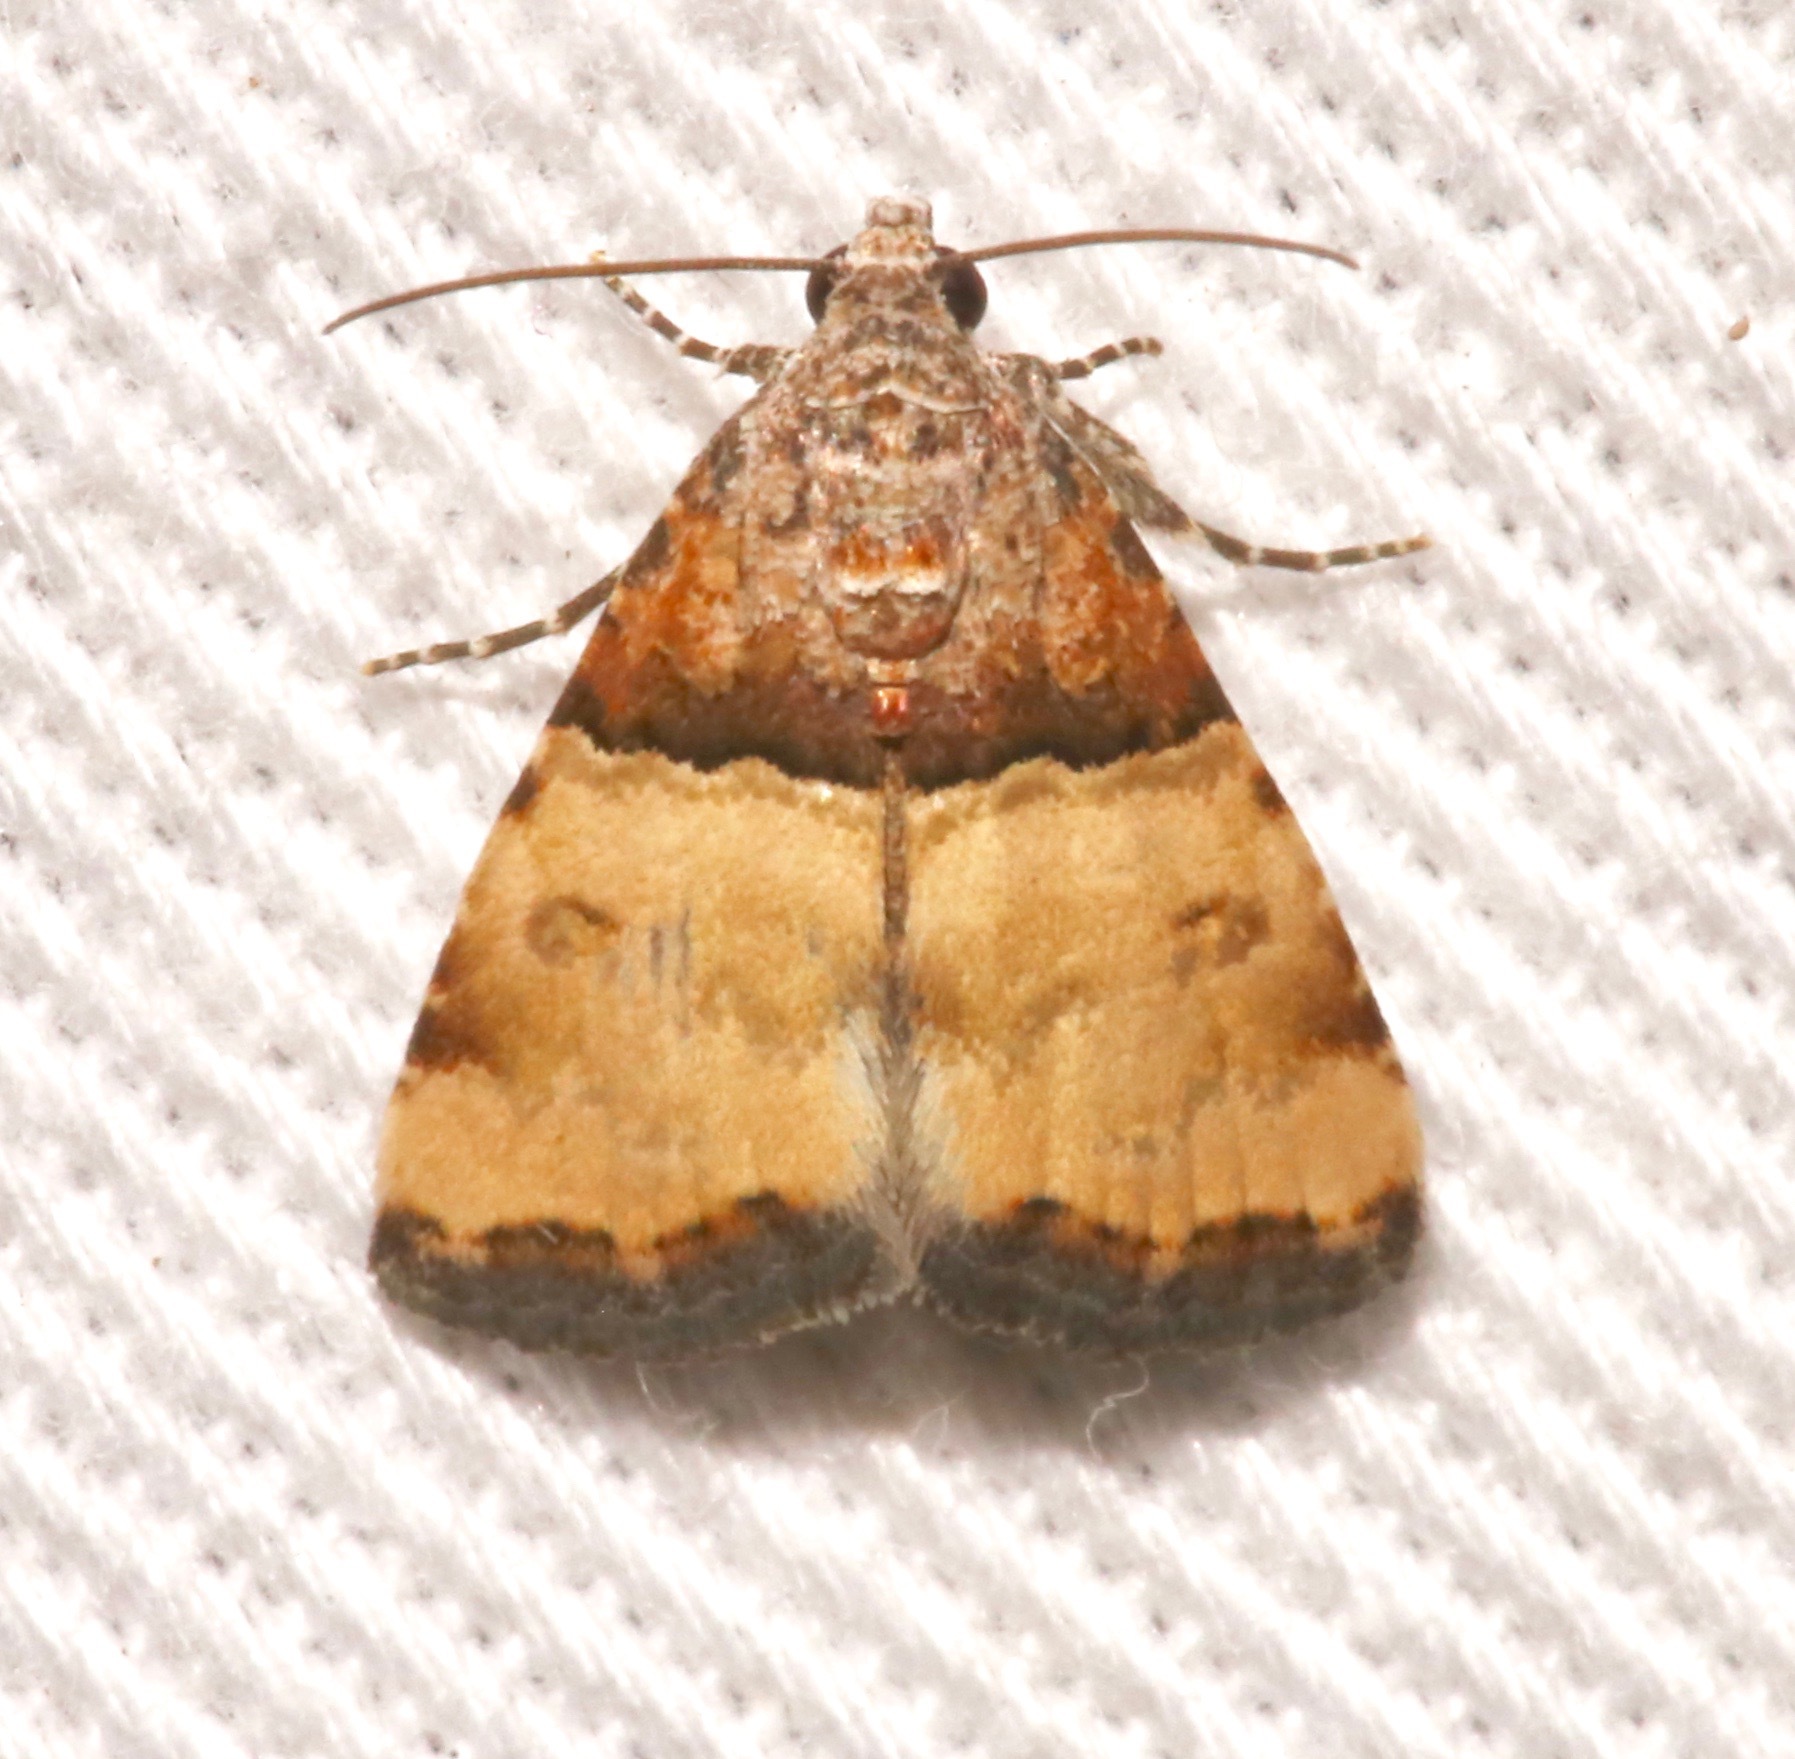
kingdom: Animalia
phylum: Arthropoda
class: Insecta
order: Lepidoptera
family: Noctuidae
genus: Cobubatha
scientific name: Cobubatha dividua
